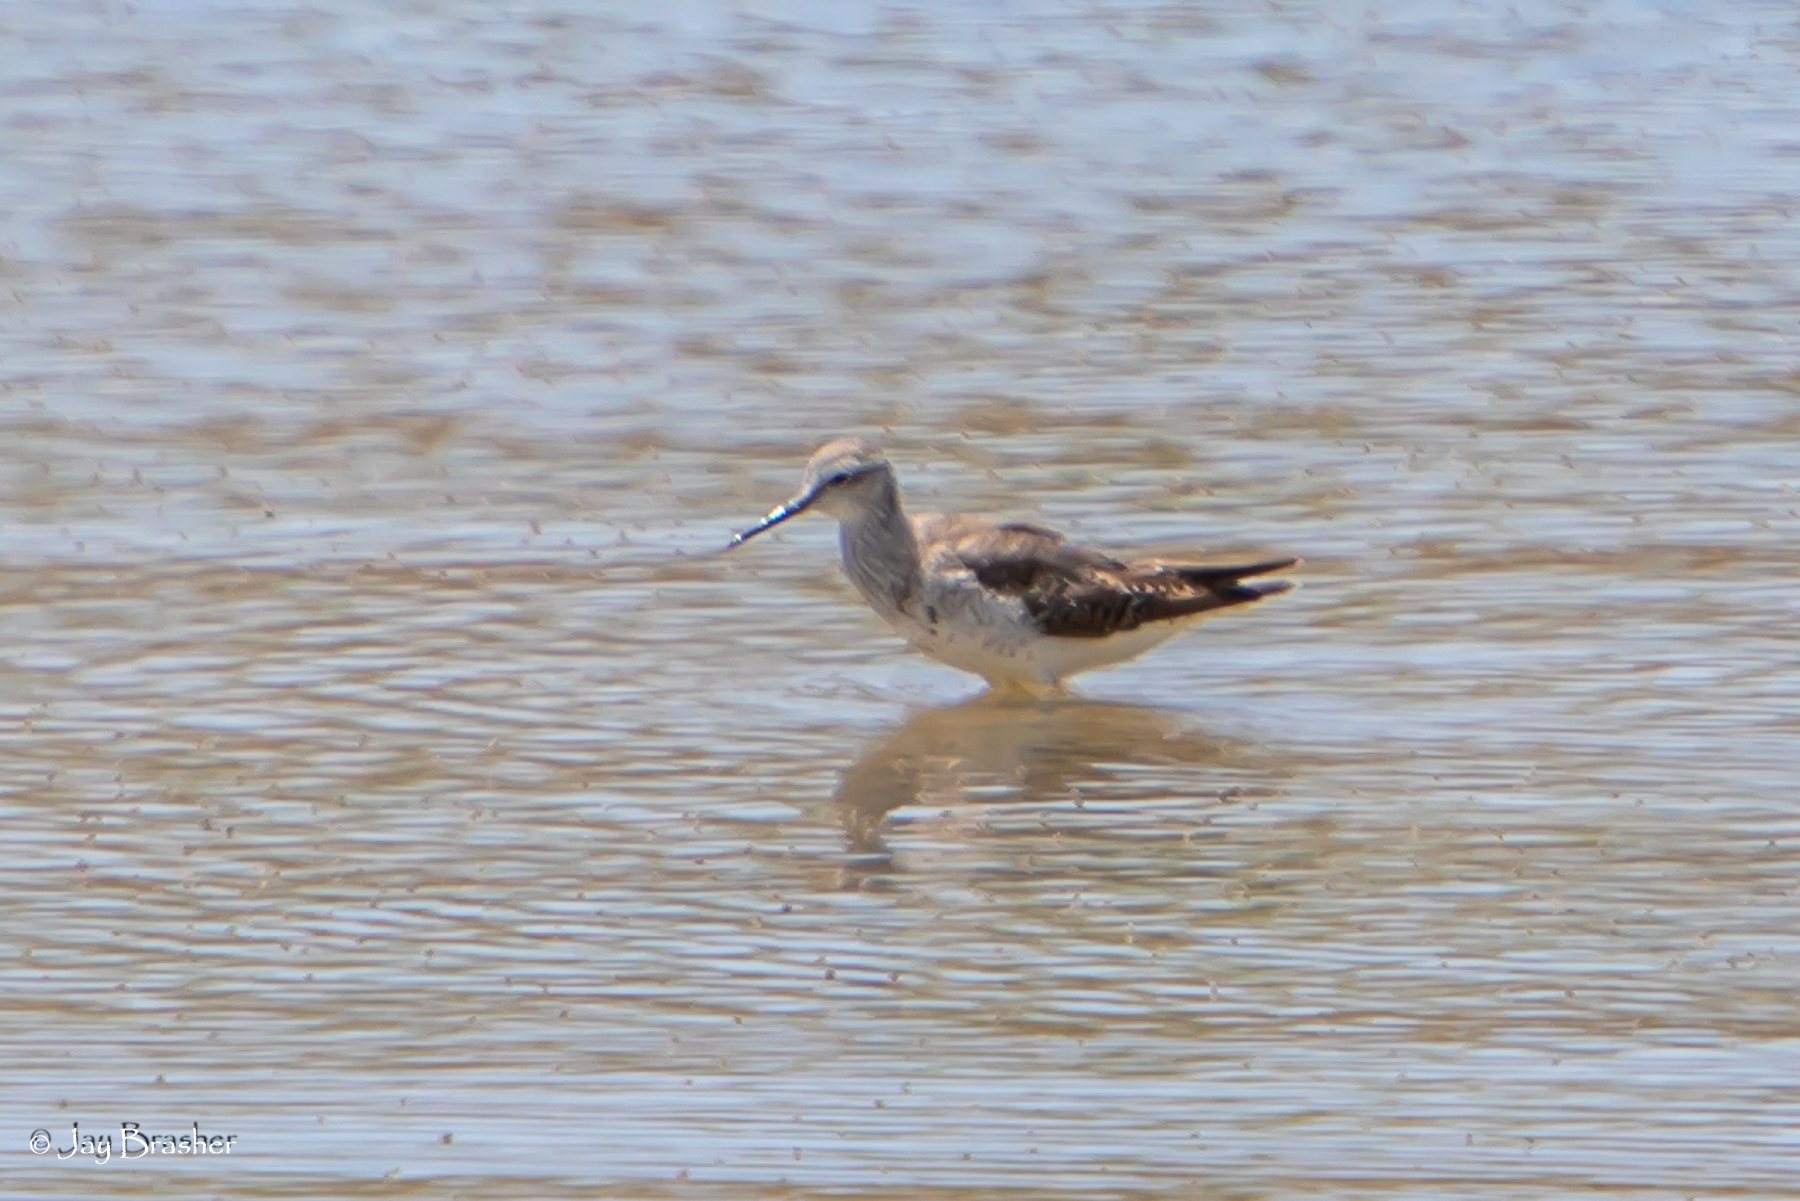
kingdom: Animalia
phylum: Chordata
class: Aves
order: Charadriiformes
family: Scolopacidae
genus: Tringa
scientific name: Tringa flavipes
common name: Lesser yellowlegs
